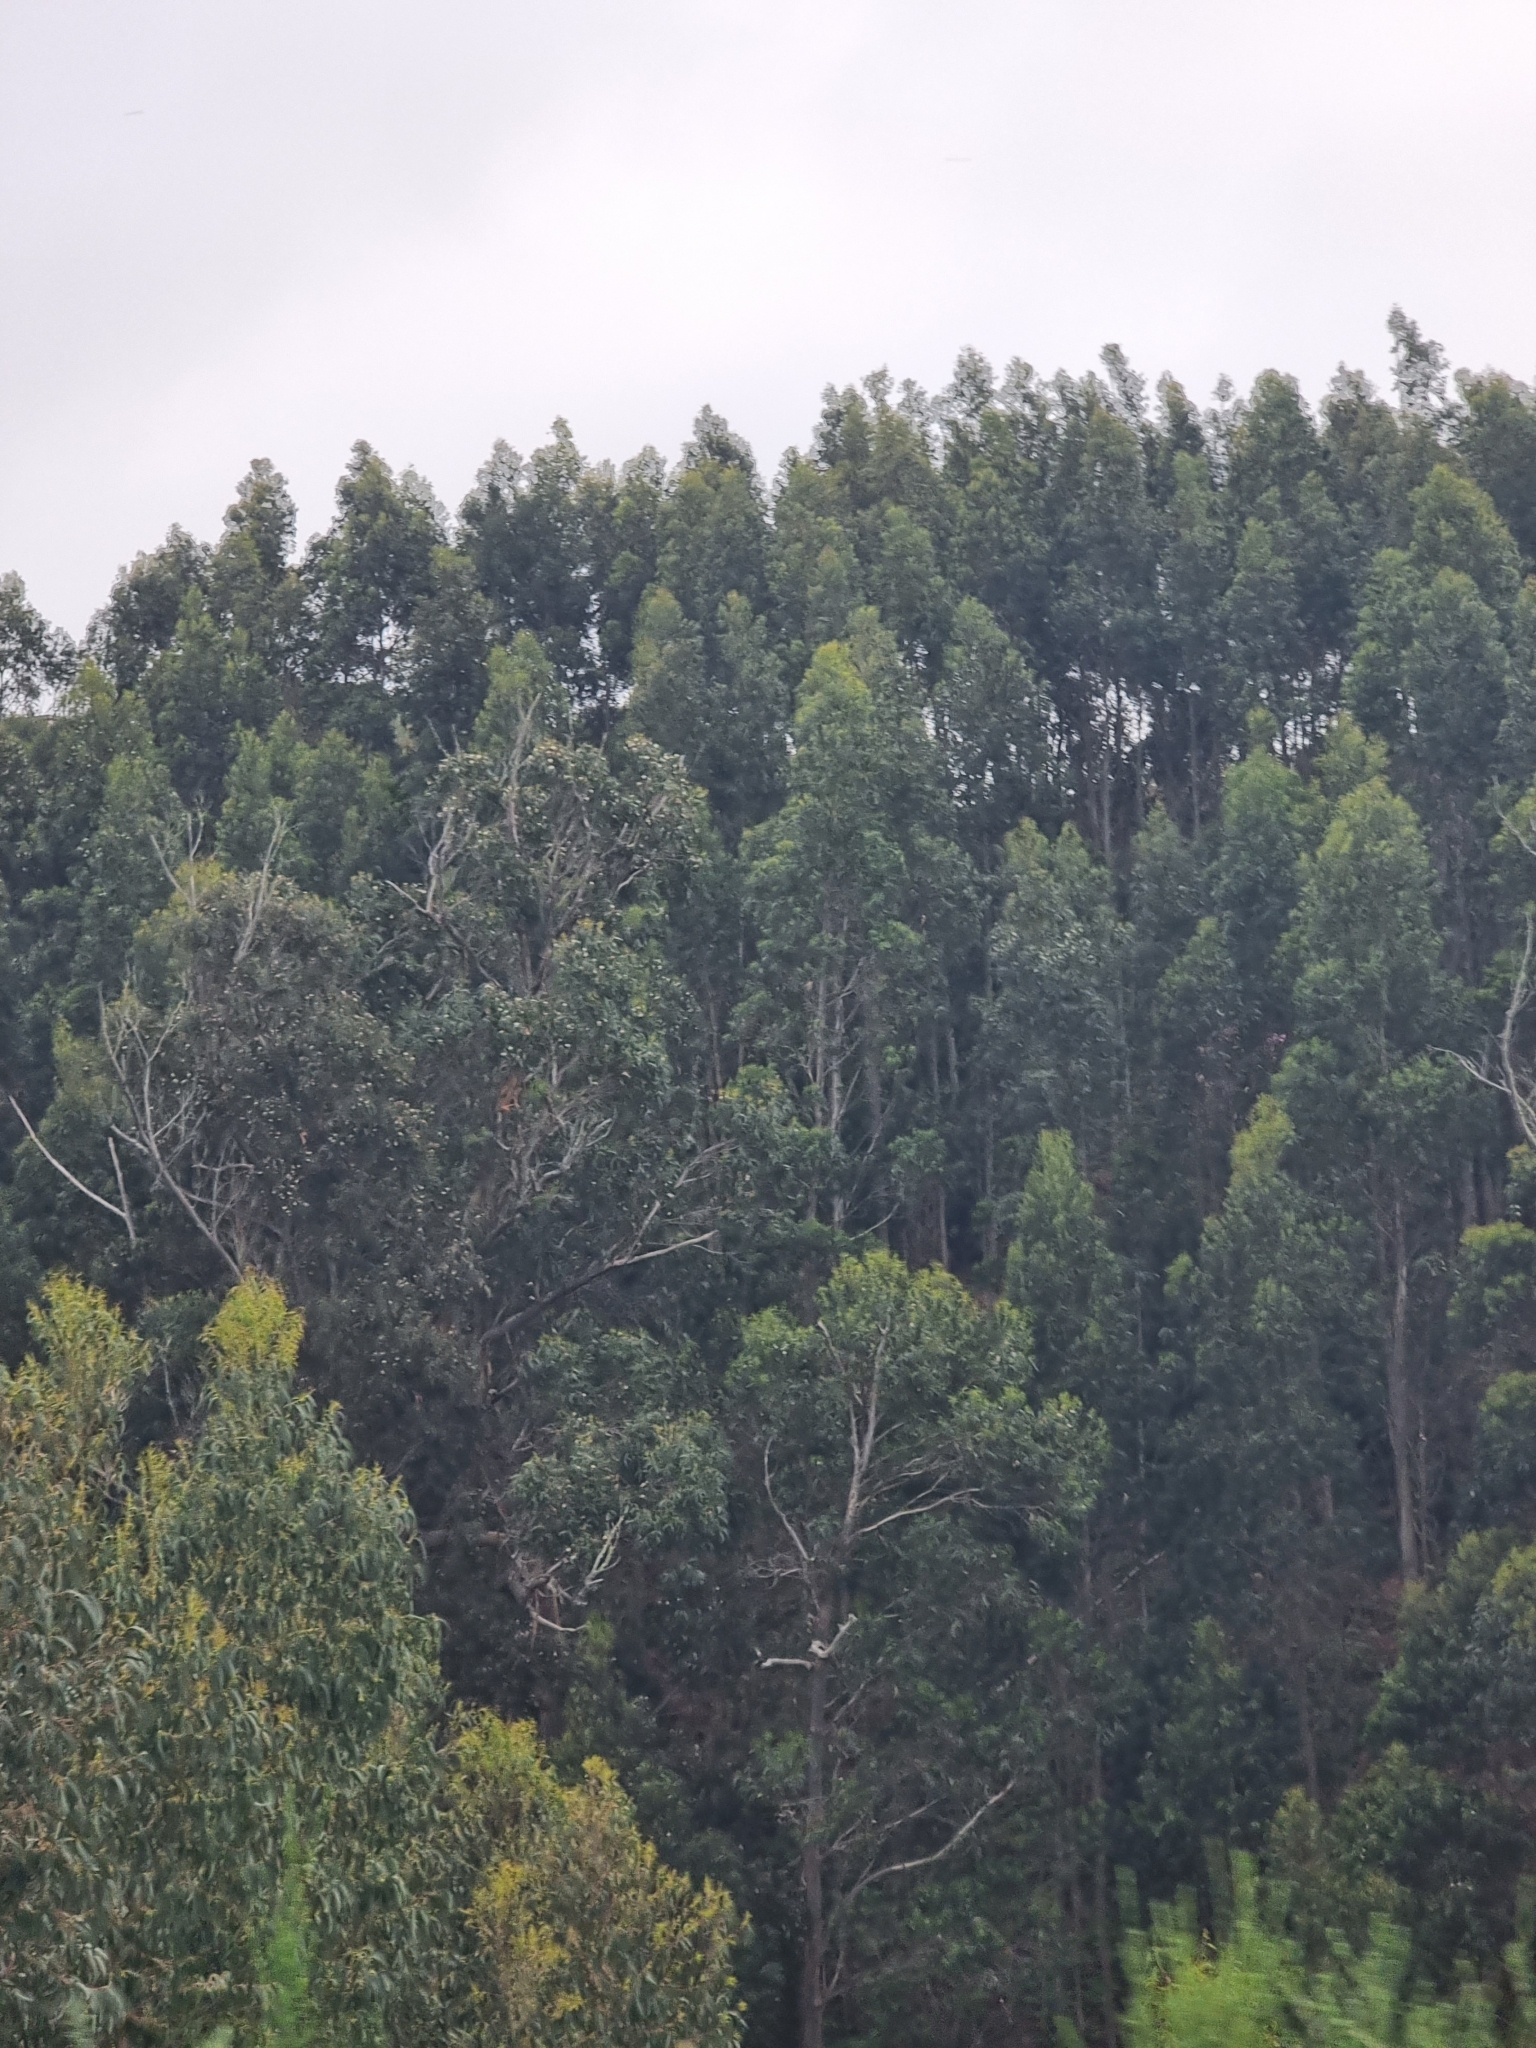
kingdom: Plantae
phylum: Tracheophyta
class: Magnoliopsida
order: Myrtales
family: Myrtaceae
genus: Eucalyptus
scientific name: Eucalyptus globulus
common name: Southern blue-gum
